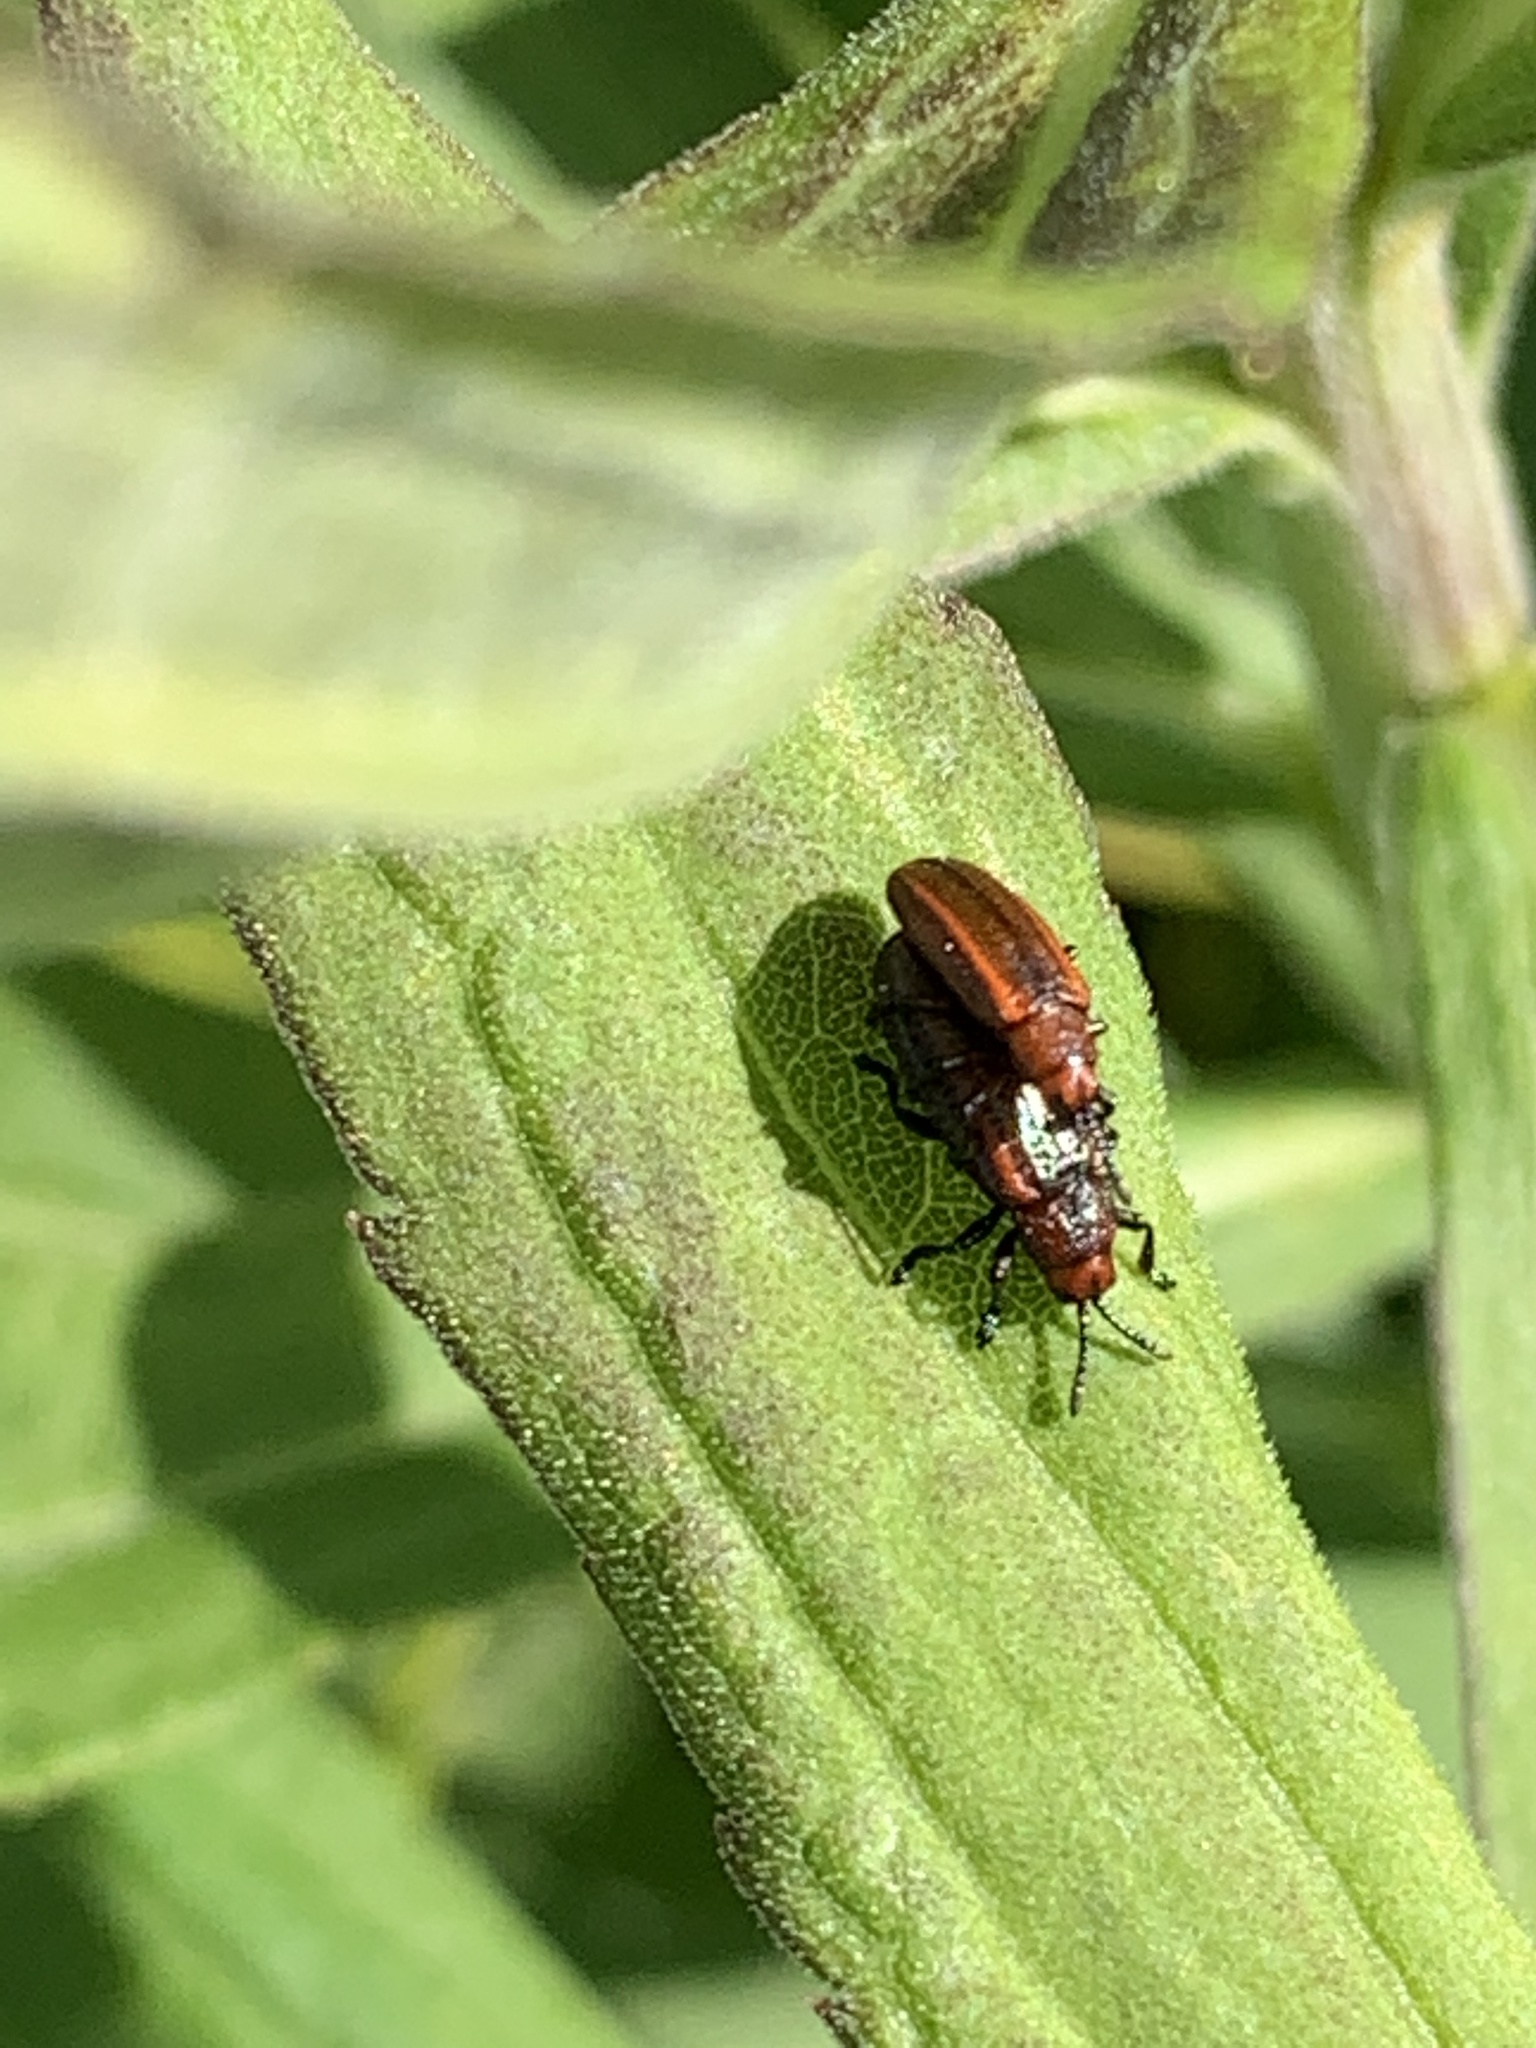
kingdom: Animalia
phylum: Arthropoda
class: Insecta
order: Coleoptera
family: Chrysomelidae
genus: Microrhopala
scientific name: Microrhopala vittata
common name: Goldenrod leaf miner beetle
